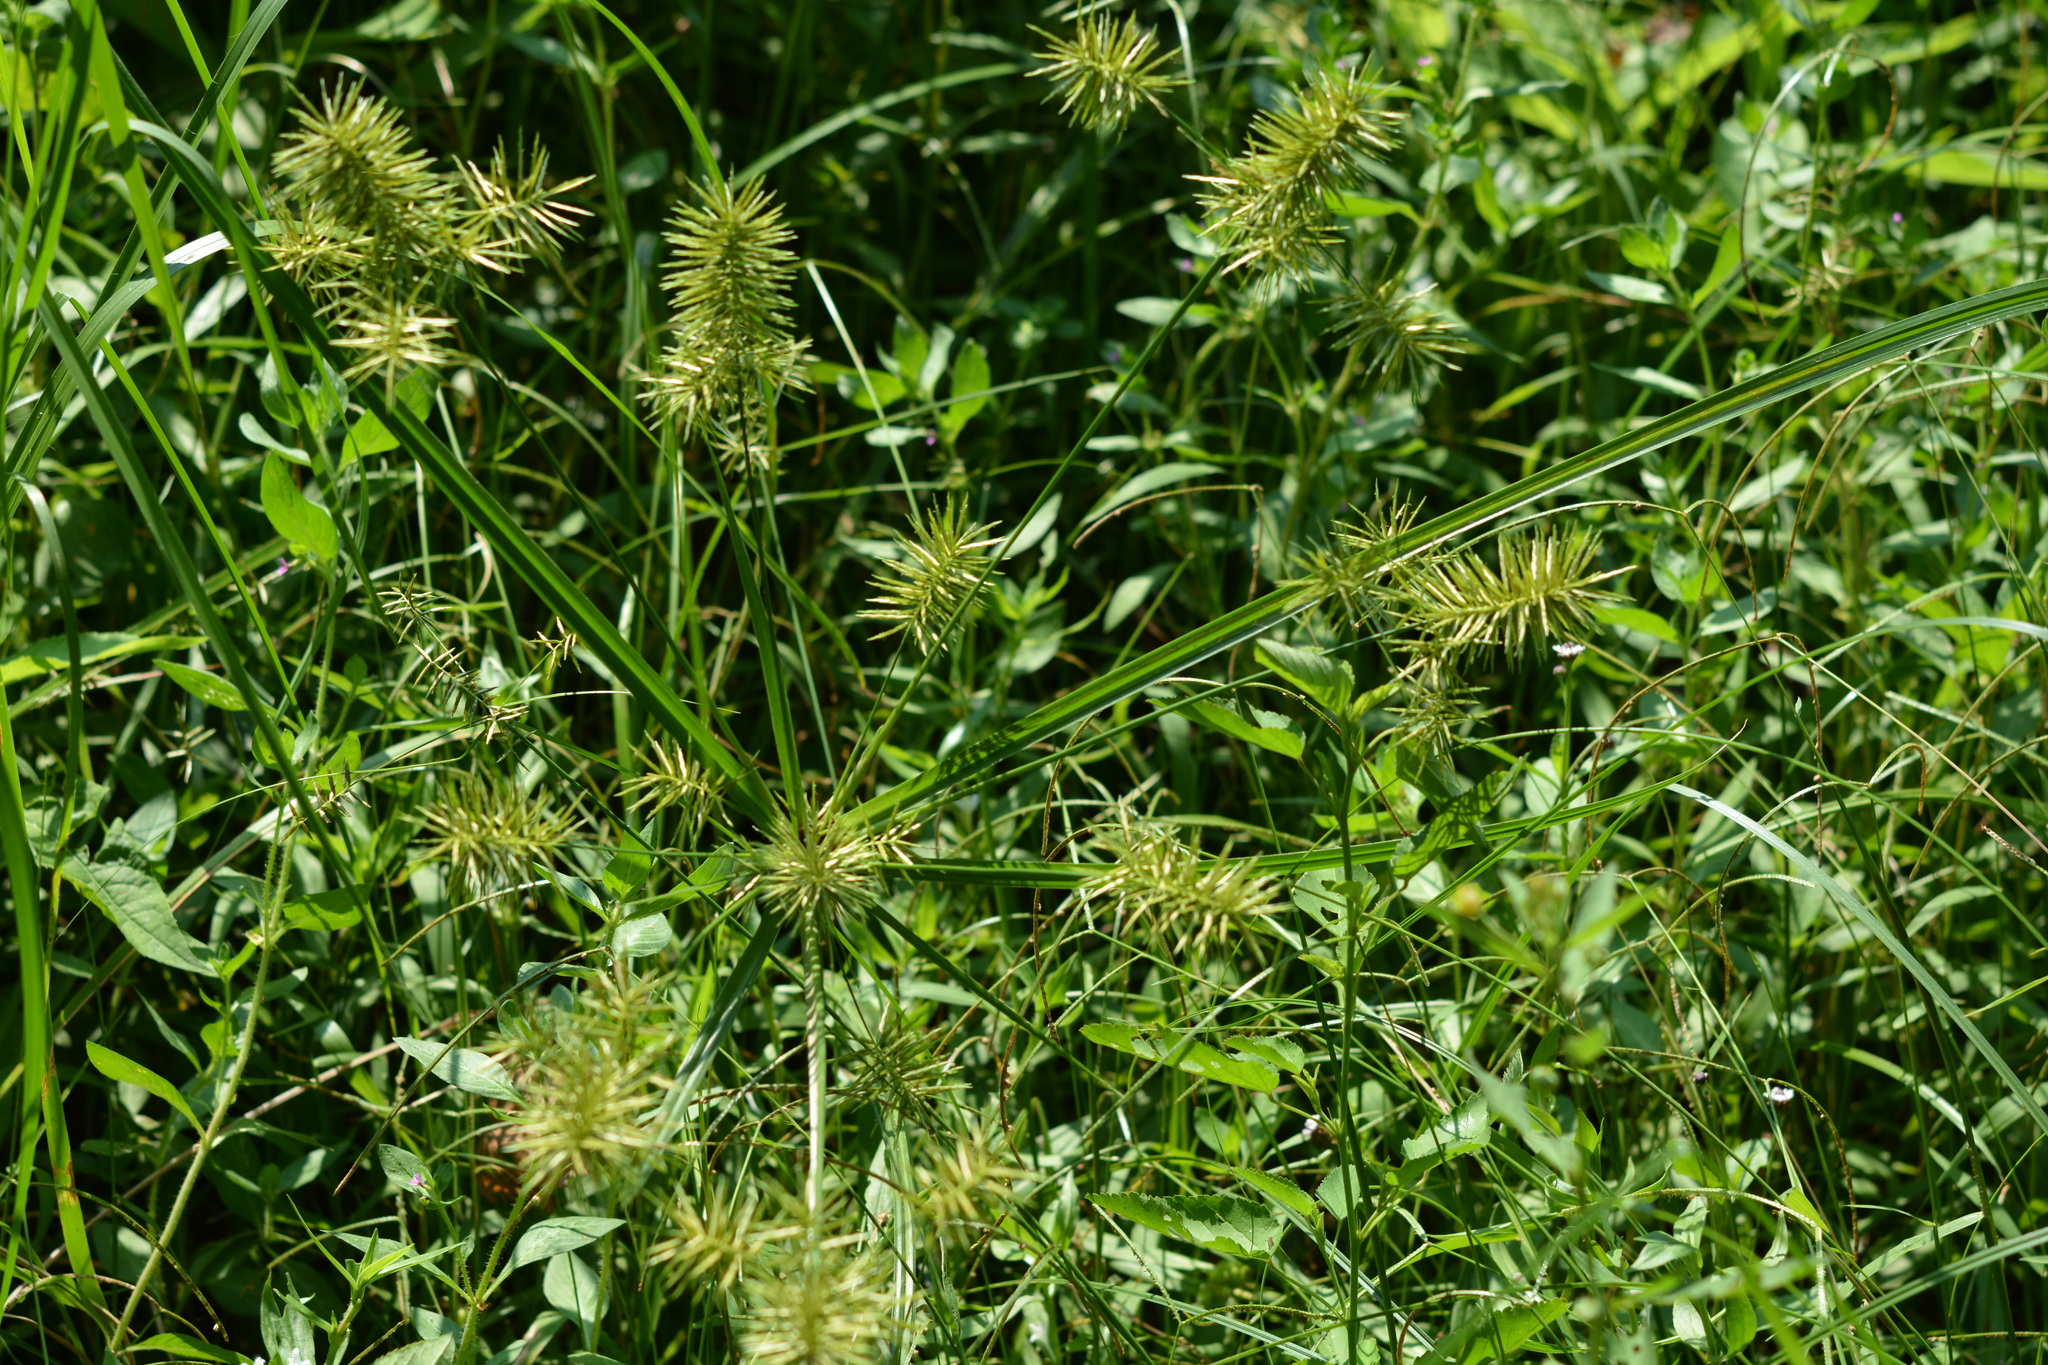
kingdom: Plantae
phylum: Tracheophyta
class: Liliopsida
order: Poales
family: Cyperaceae
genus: Cyperus
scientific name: Cyperus strigosus
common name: False nutsedge
